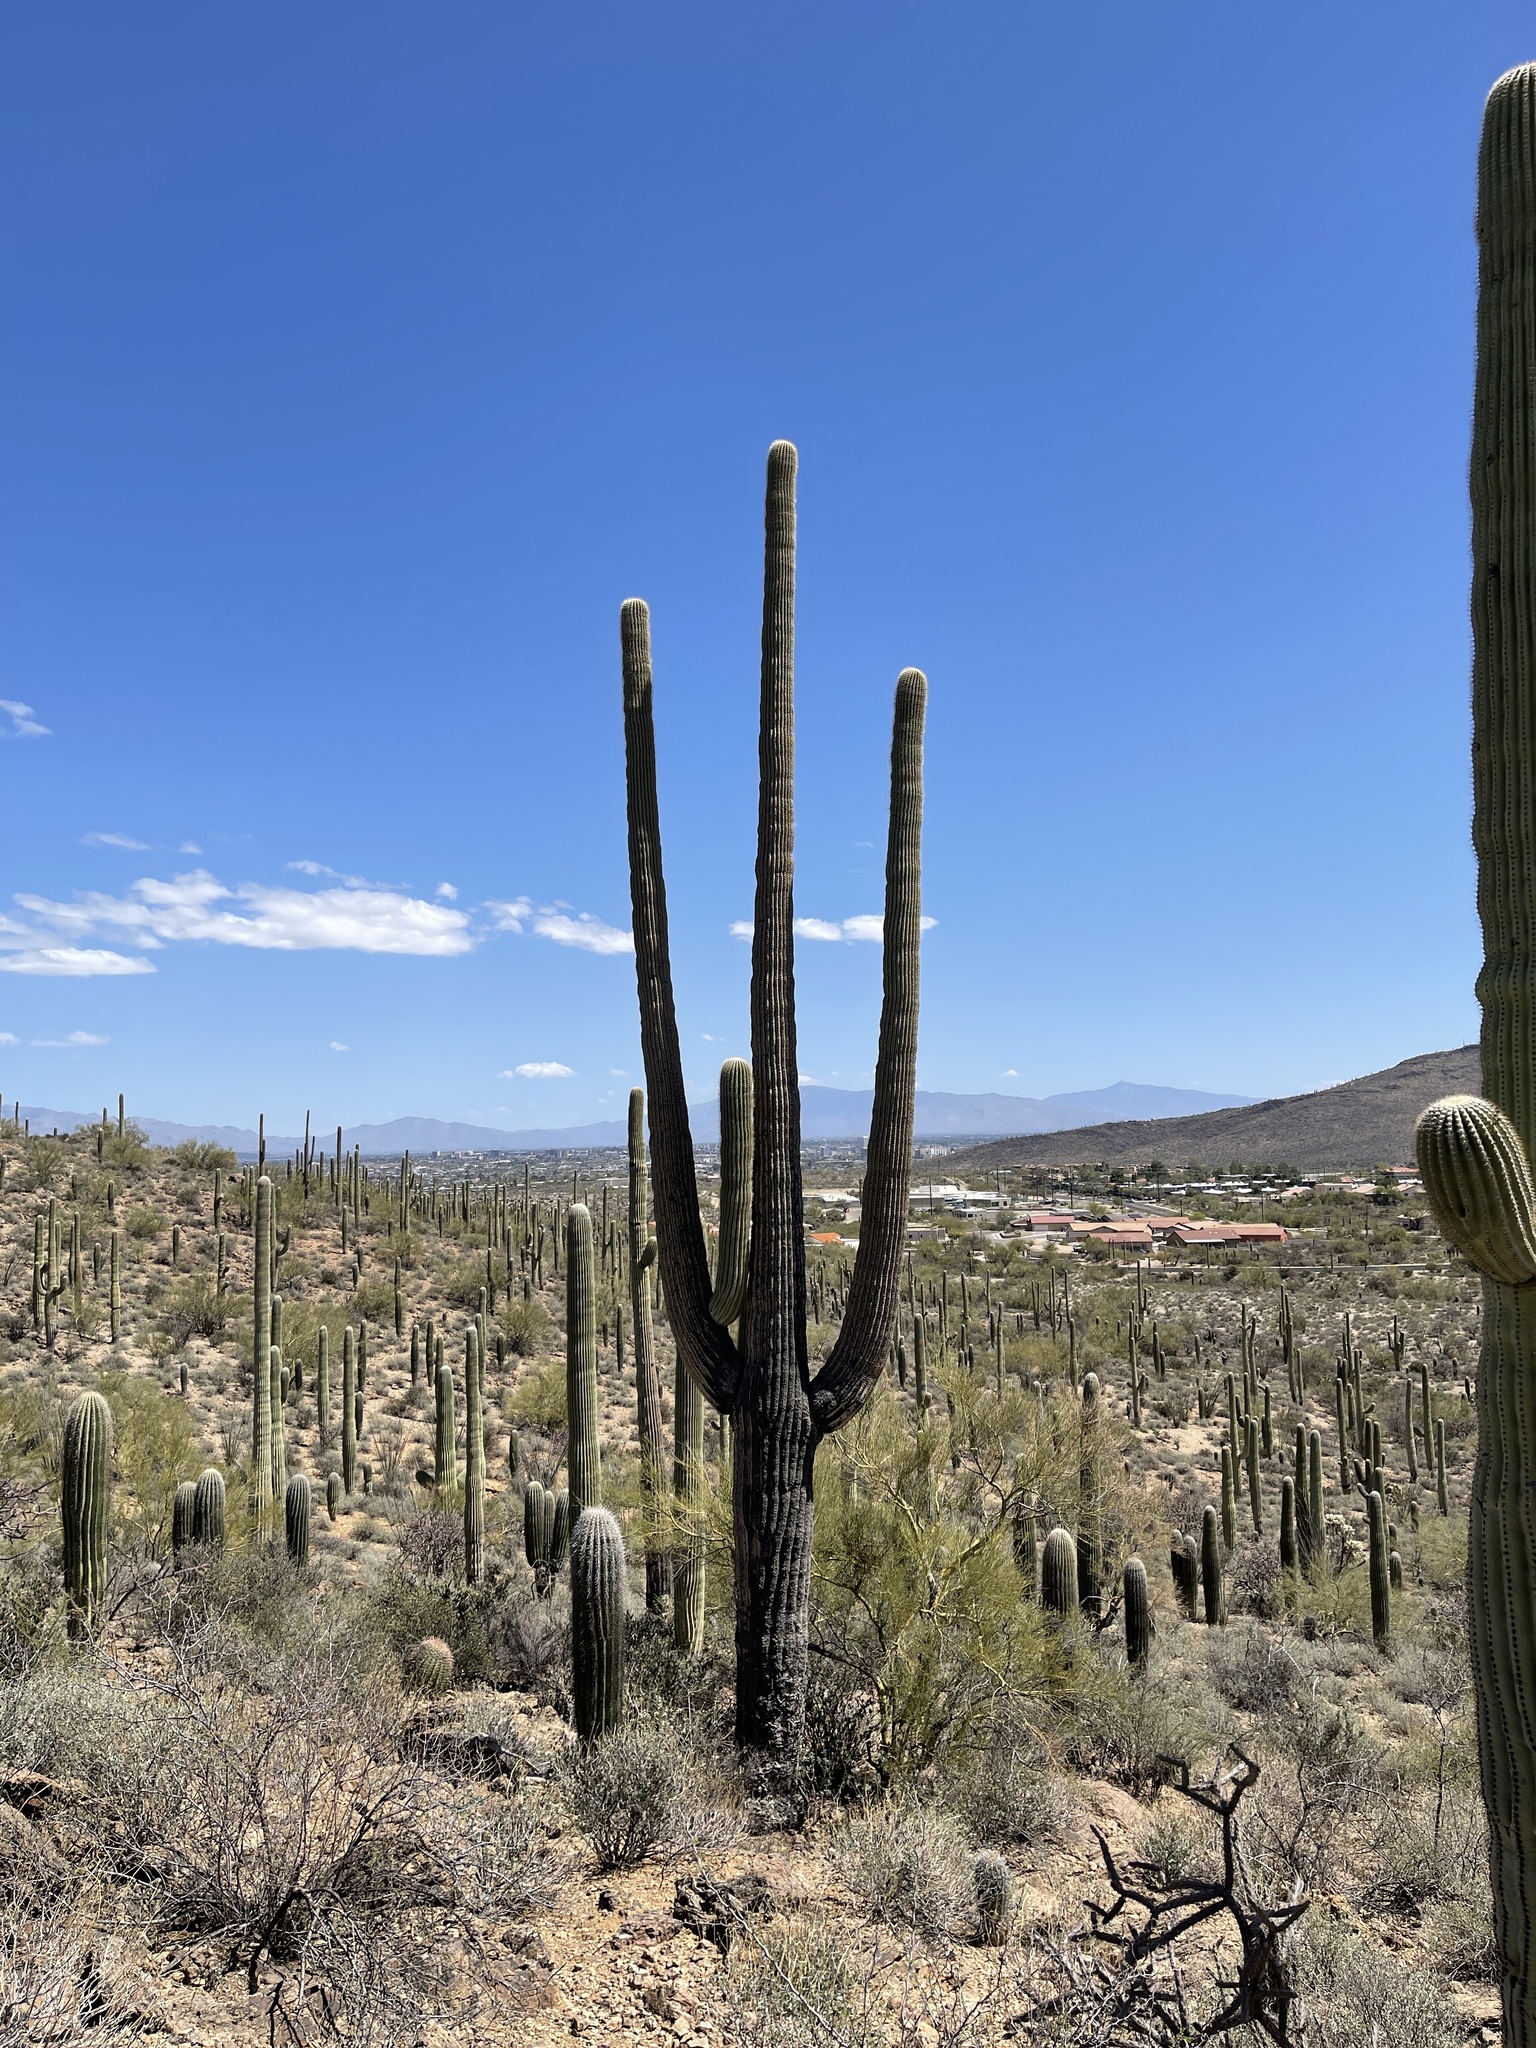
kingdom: Plantae
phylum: Tracheophyta
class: Magnoliopsida
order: Caryophyllales
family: Cactaceae
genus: Carnegiea
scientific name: Carnegiea gigantea
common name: Saguaro
